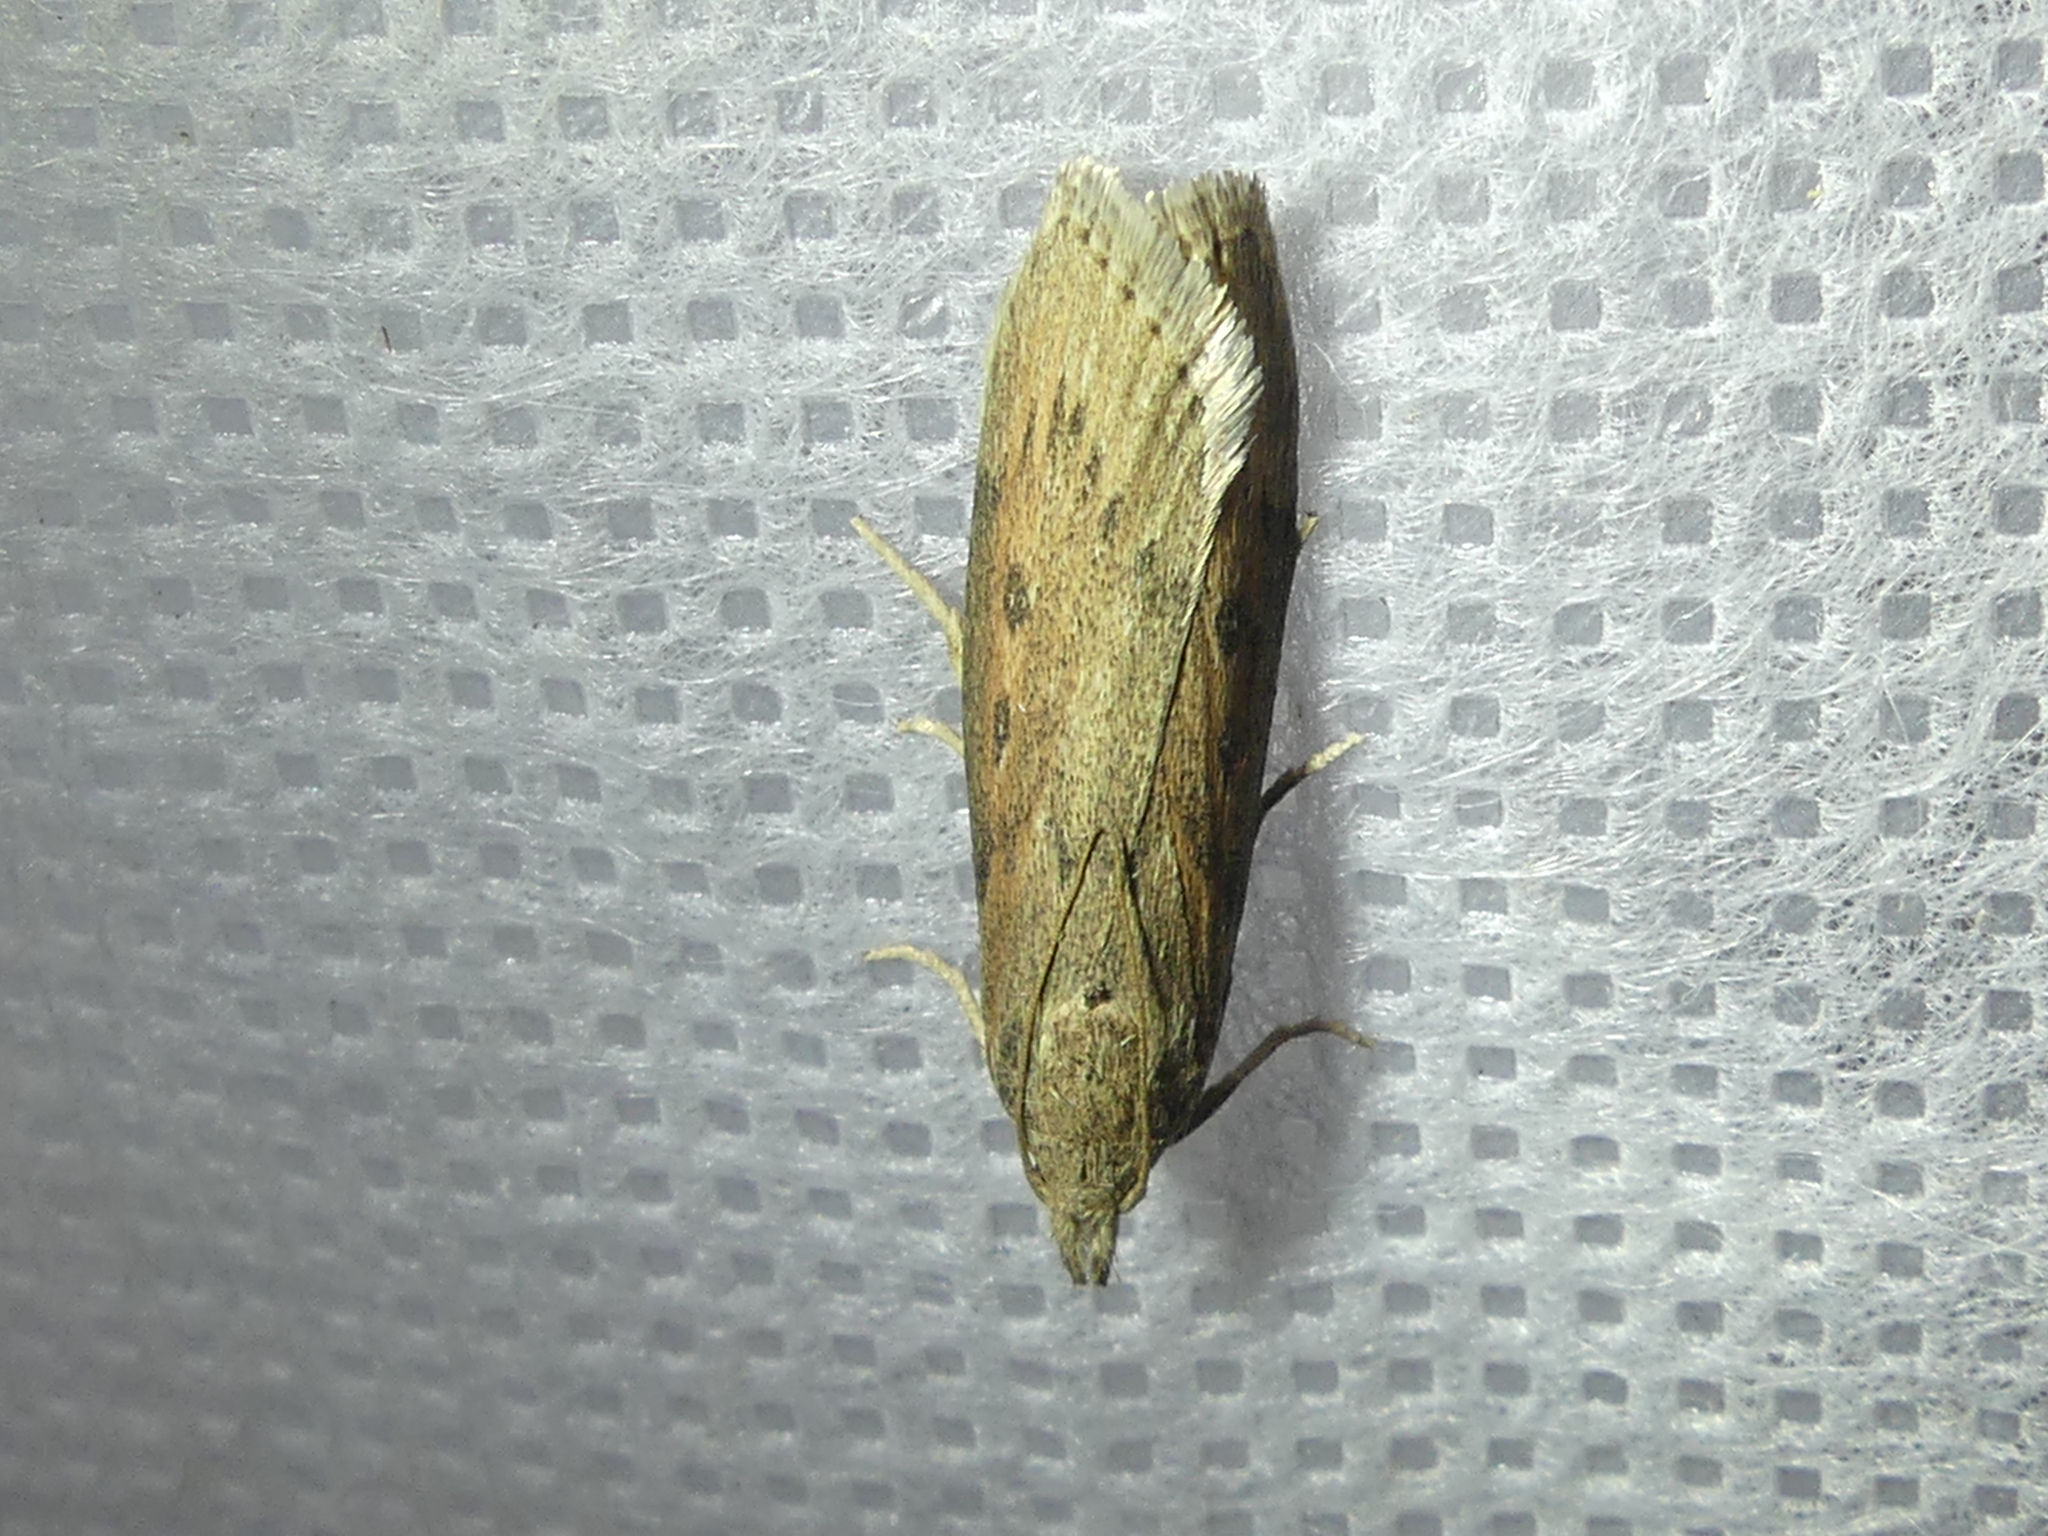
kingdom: Animalia
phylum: Arthropoda
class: Insecta
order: Lepidoptera
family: Pyralidae
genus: Aphomia
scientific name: Aphomia zelleri
